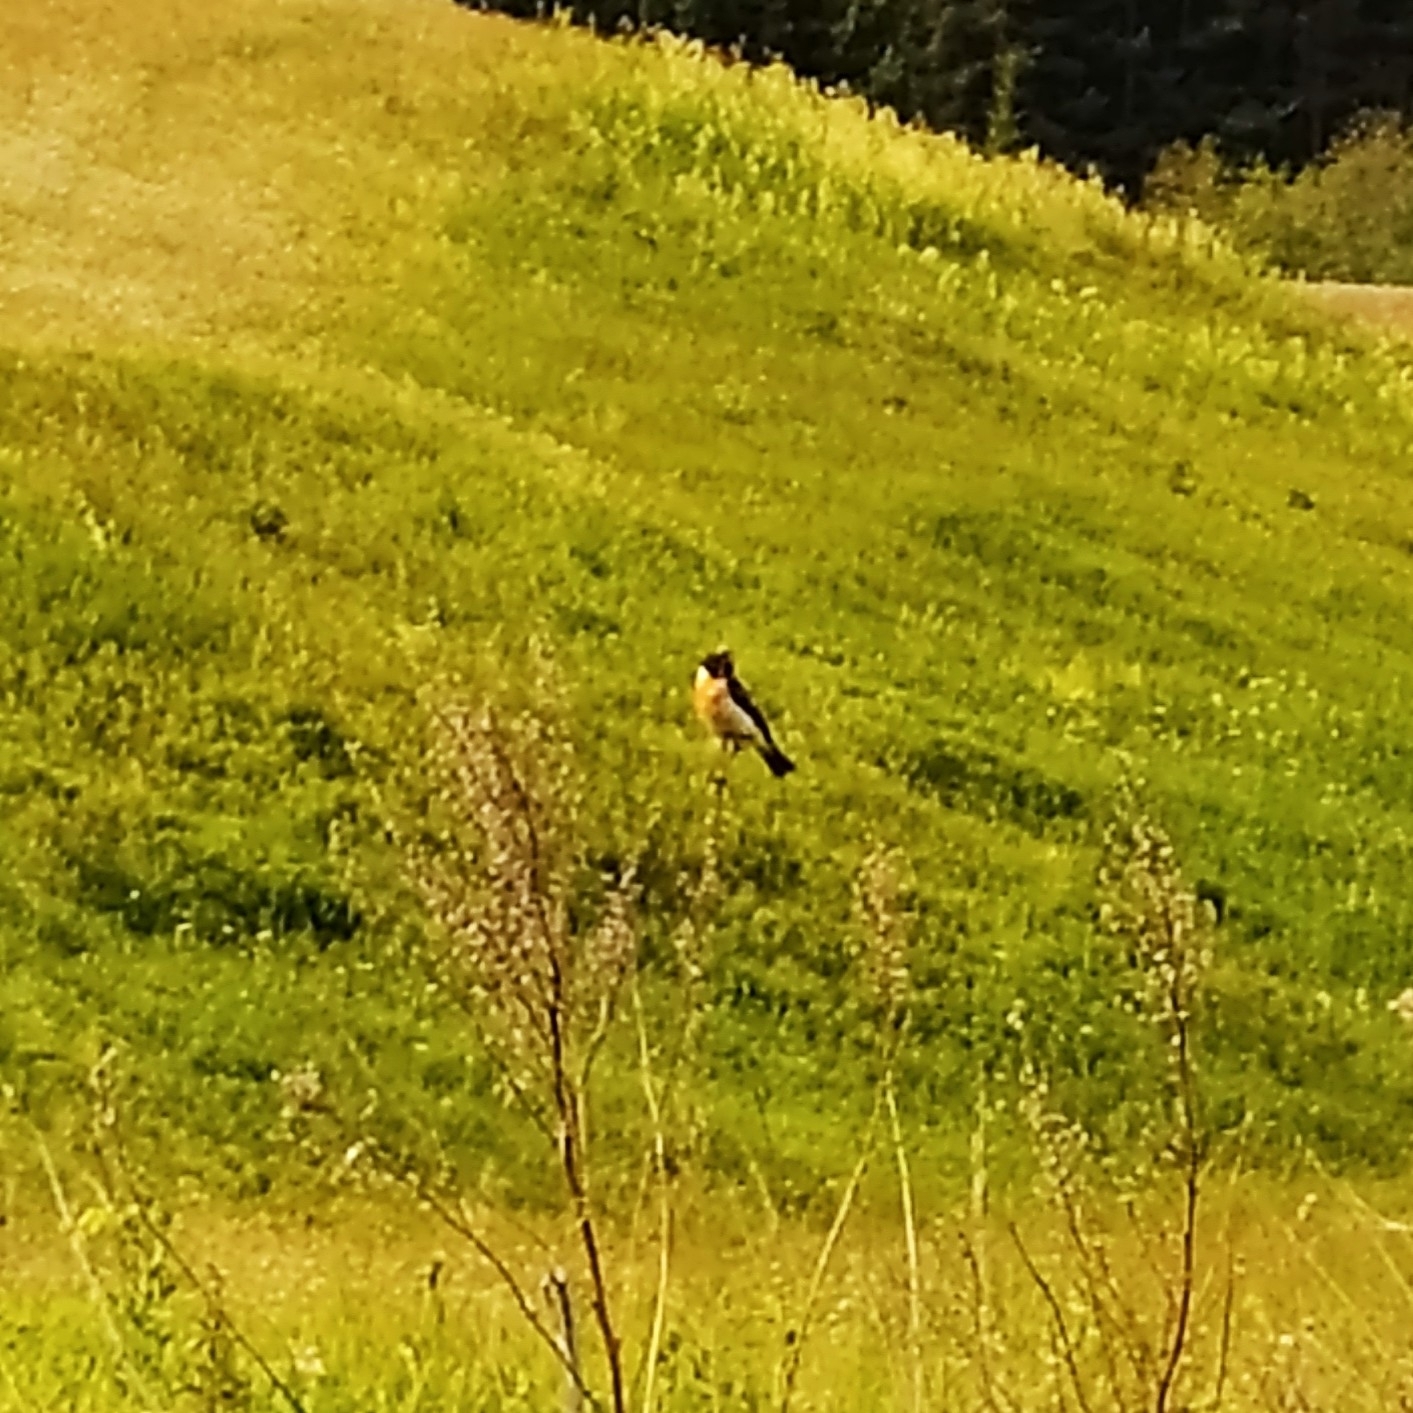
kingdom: Animalia
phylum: Chordata
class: Aves
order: Passeriformes
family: Muscicapidae
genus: Saxicola
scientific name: Saxicola maurus
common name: Siberian stonechat
